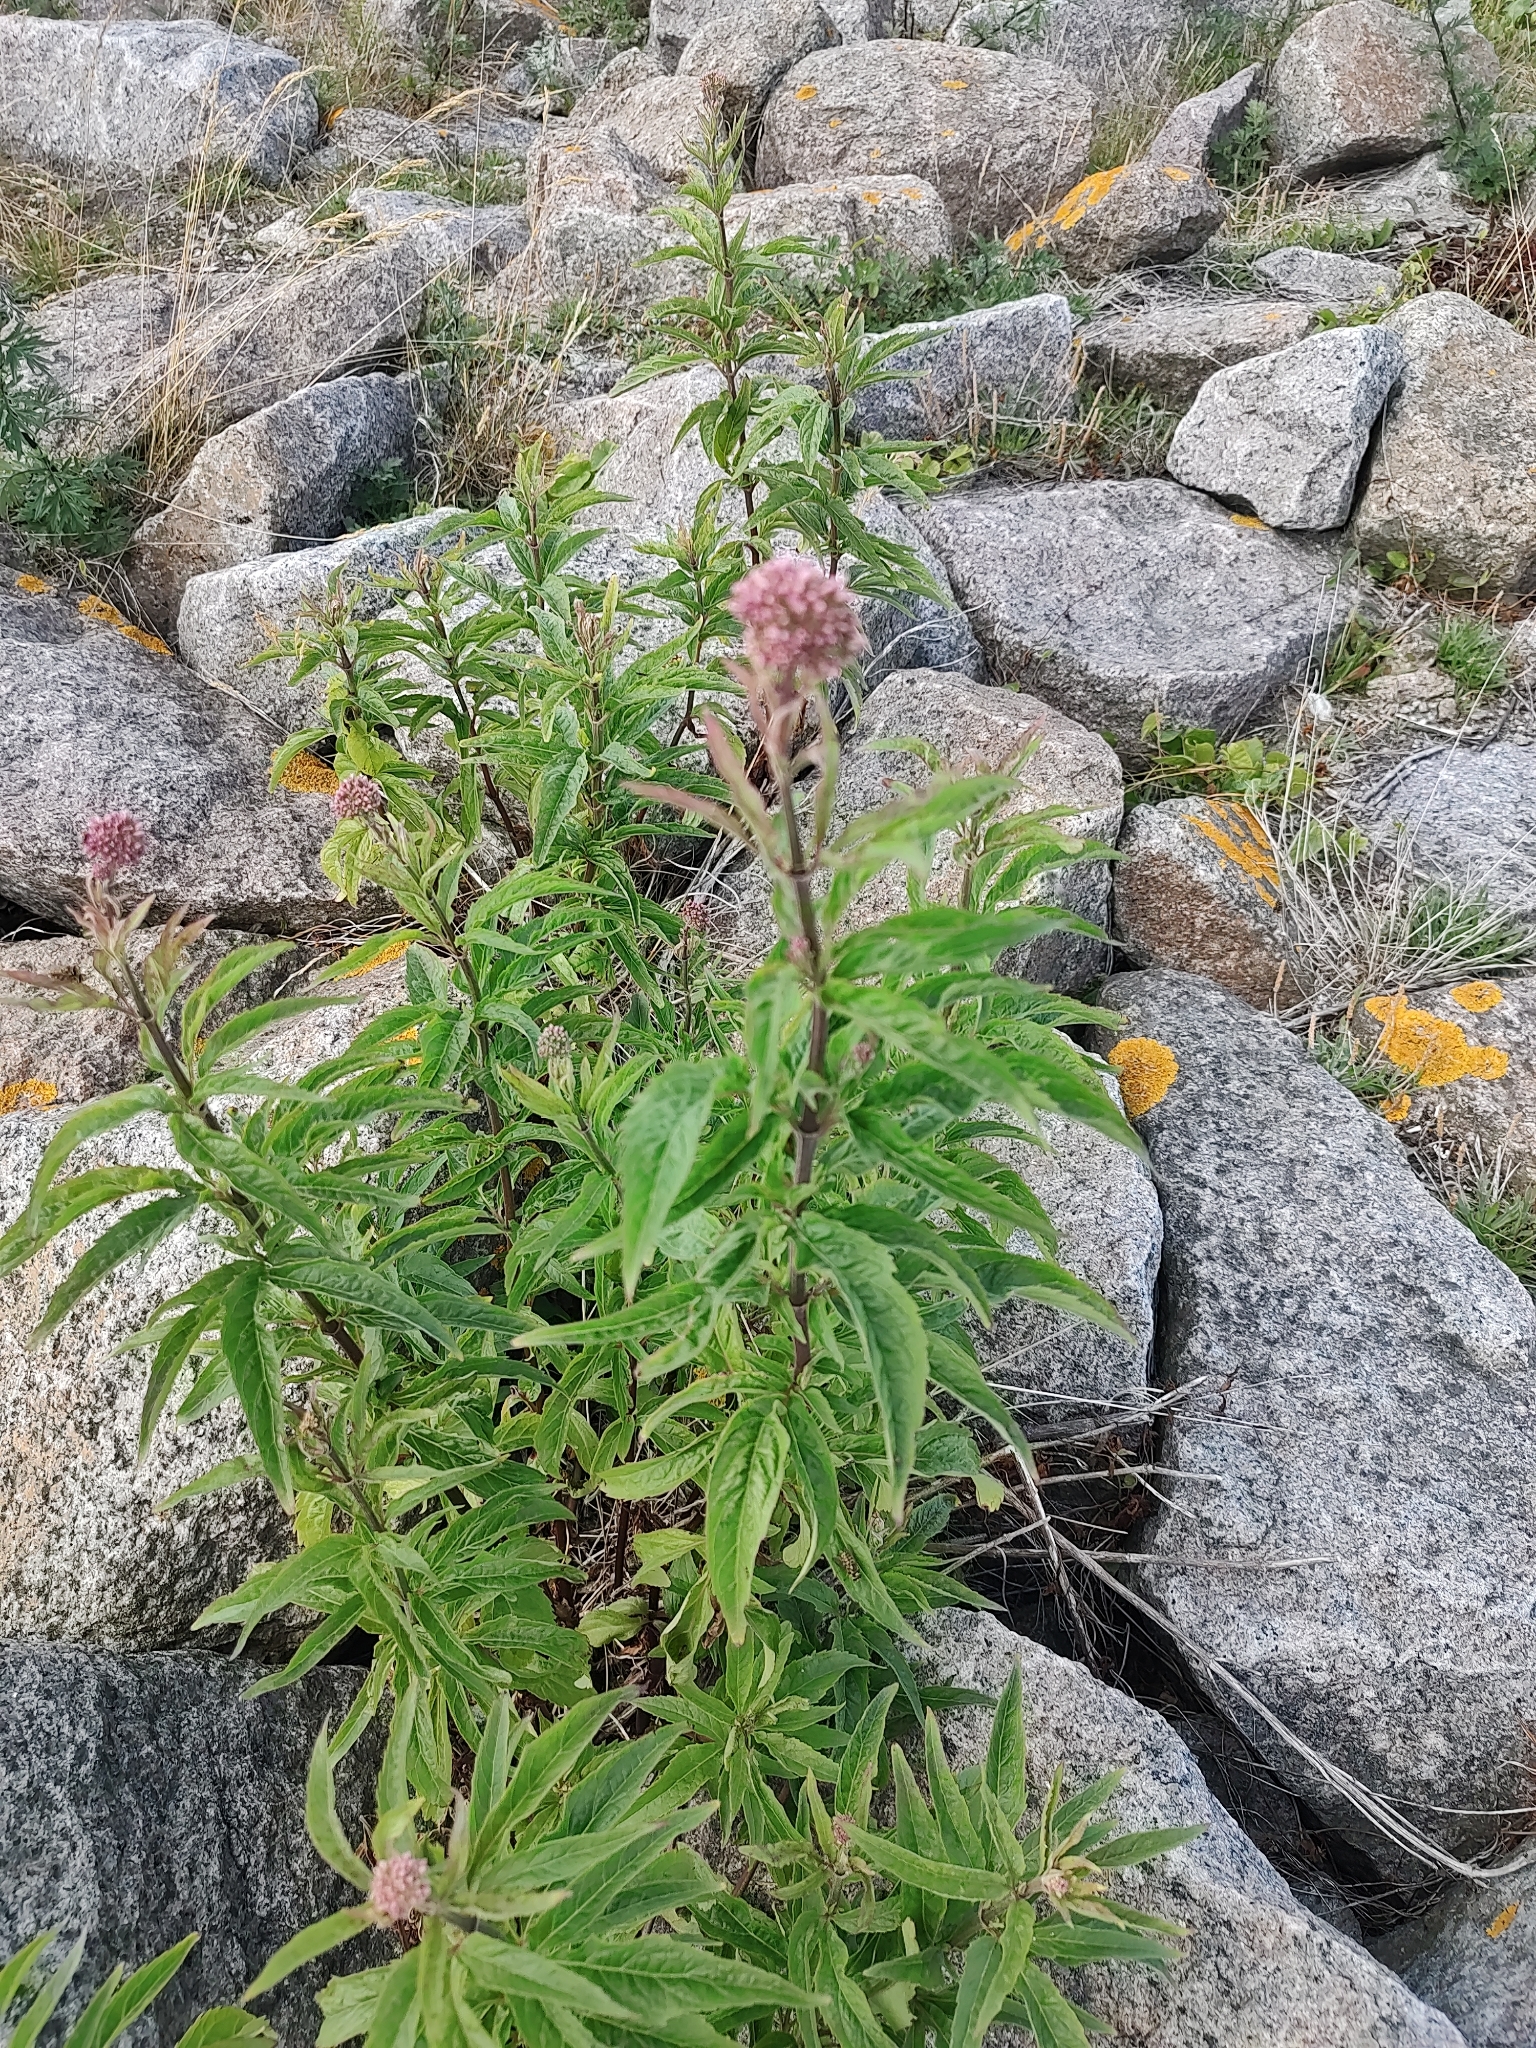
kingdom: Plantae
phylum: Tracheophyta
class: Magnoliopsida
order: Asterales
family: Asteraceae
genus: Eupatorium
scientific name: Eupatorium cannabinum
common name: Hemp-agrimony
